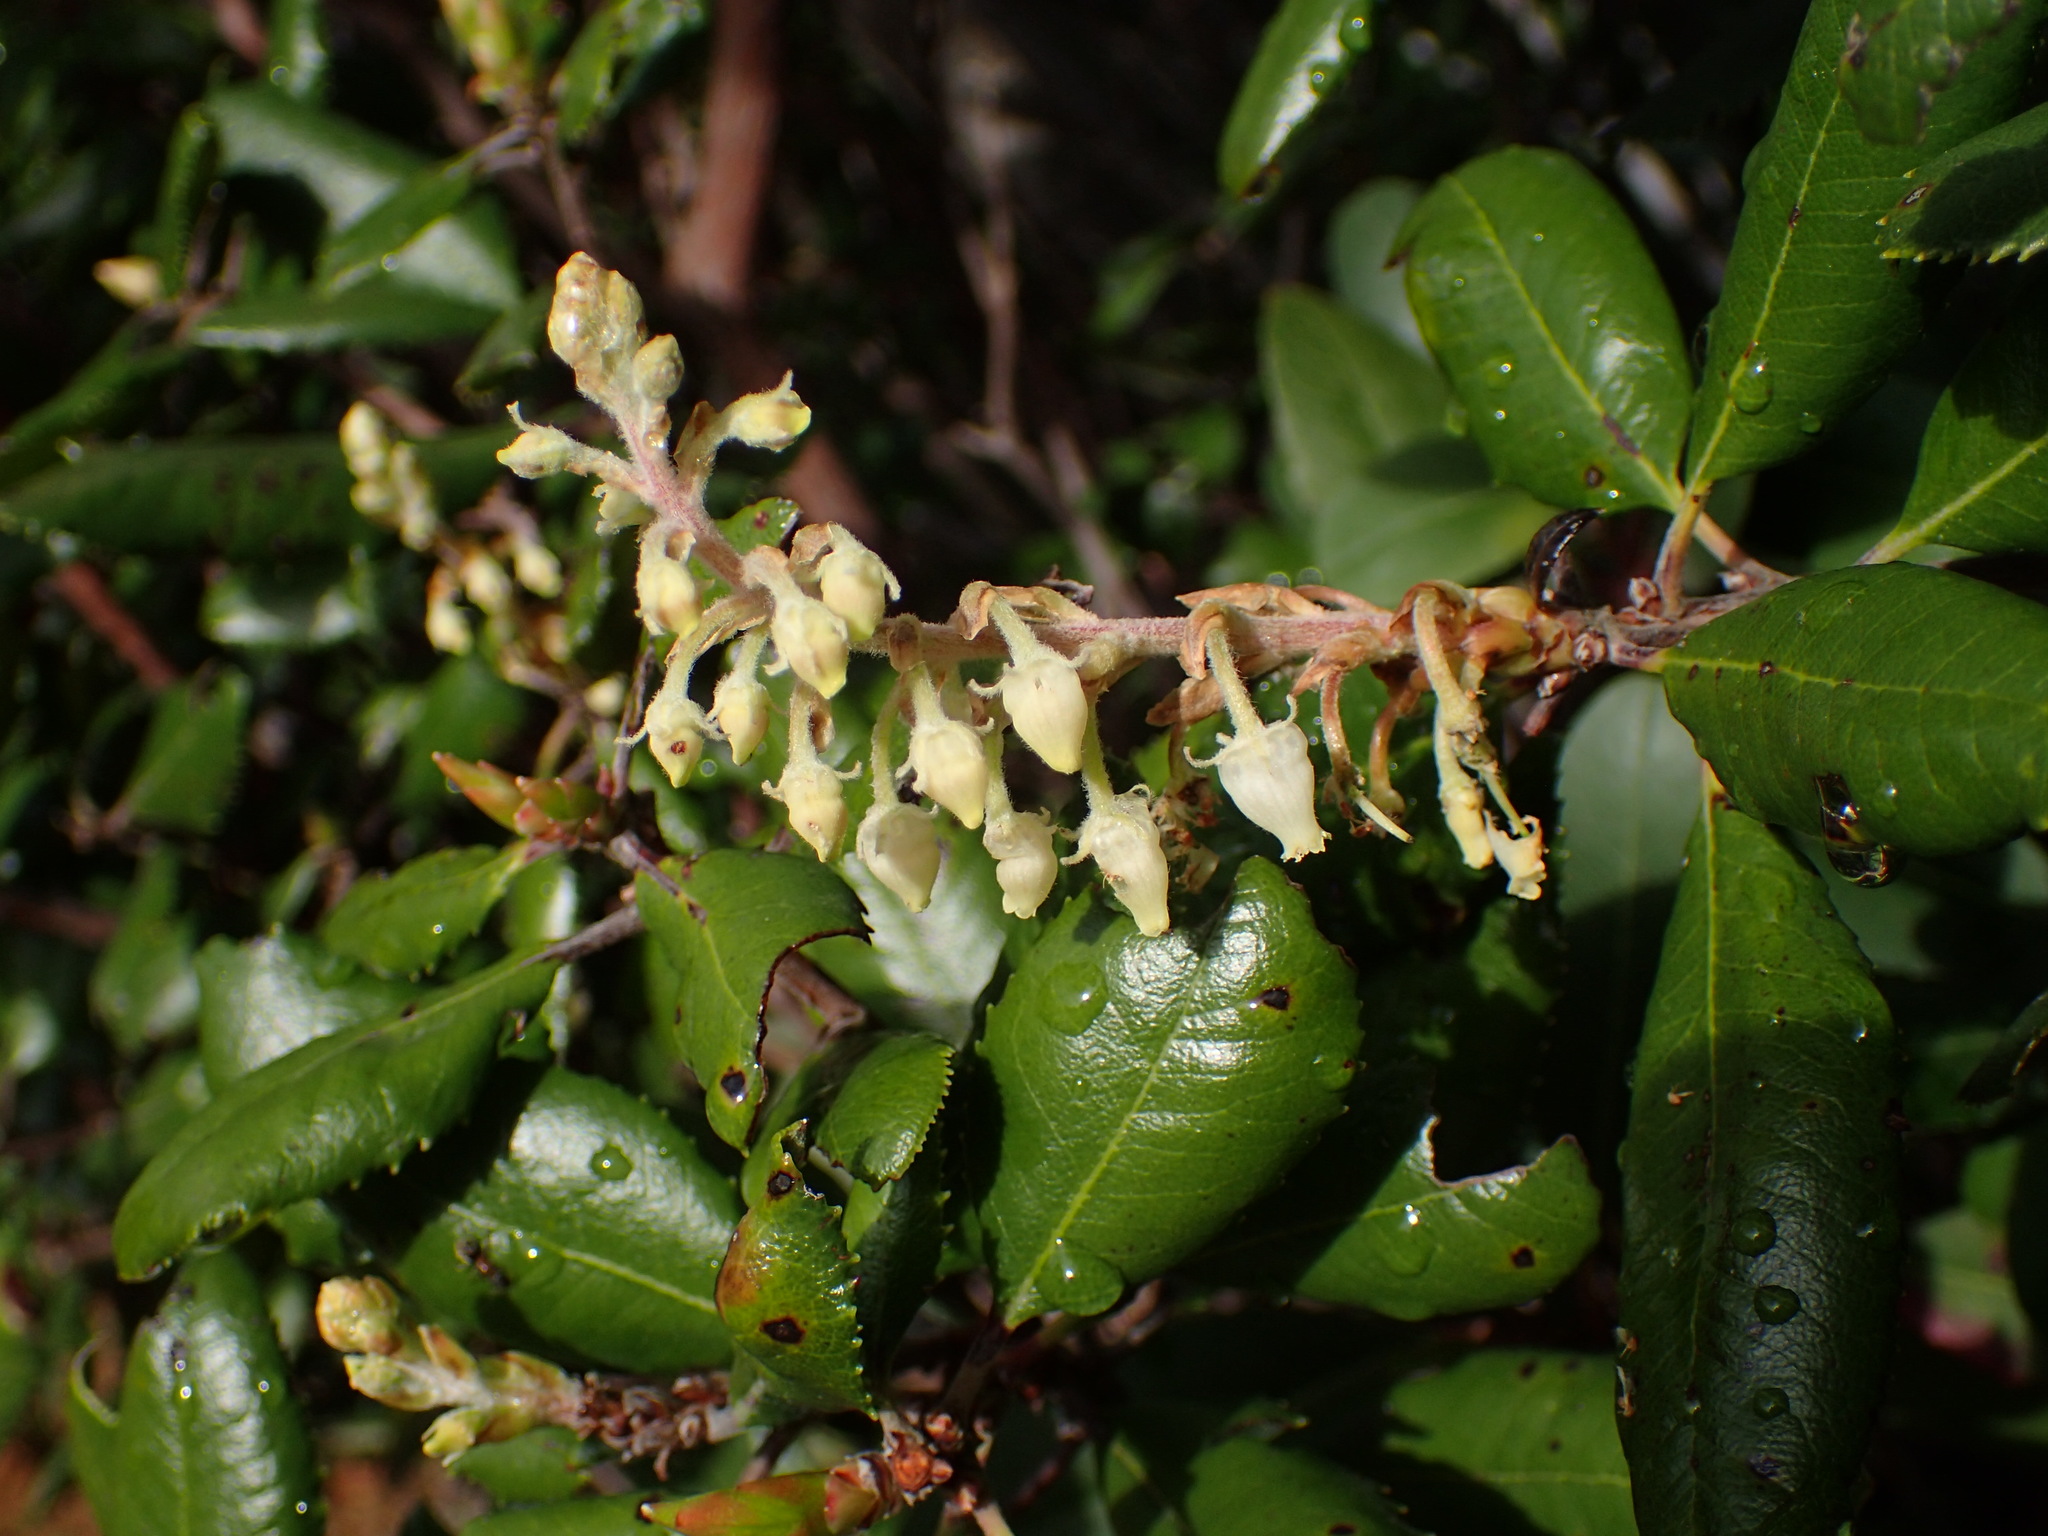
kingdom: Plantae
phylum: Tracheophyta
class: Magnoliopsida
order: Ericales
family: Ericaceae
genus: Comarostaphylis
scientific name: Comarostaphylis diversifolia
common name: Summer-holly
